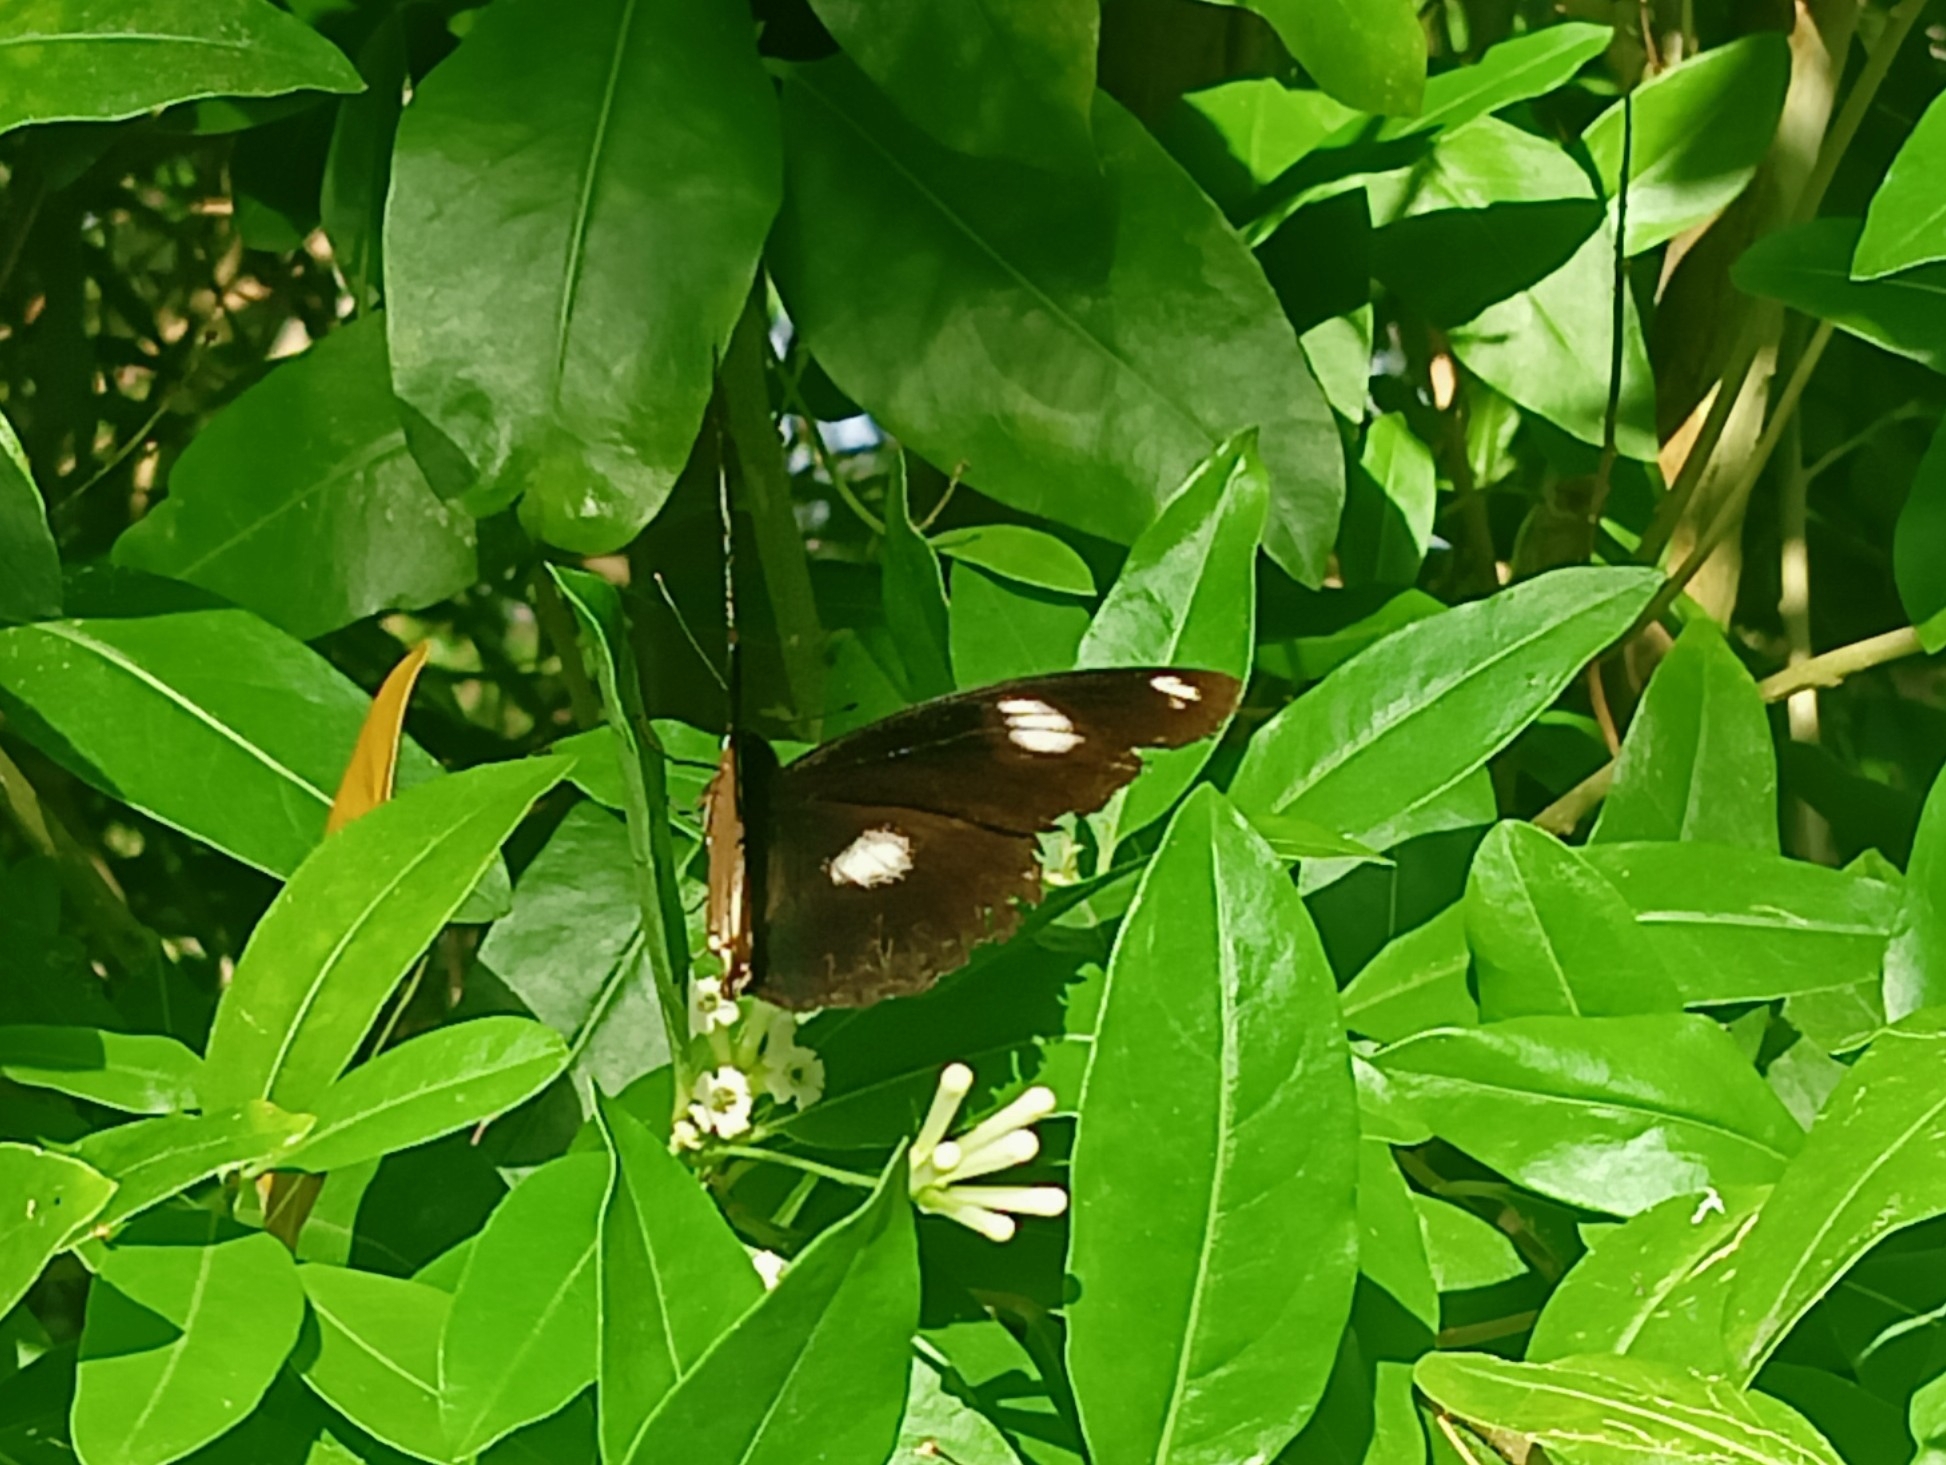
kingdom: Animalia
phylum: Arthropoda
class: Insecta
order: Lepidoptera
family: Nymphalidae
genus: Hypolimnas
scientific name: Hypolimnas bolina
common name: Great eggfly
